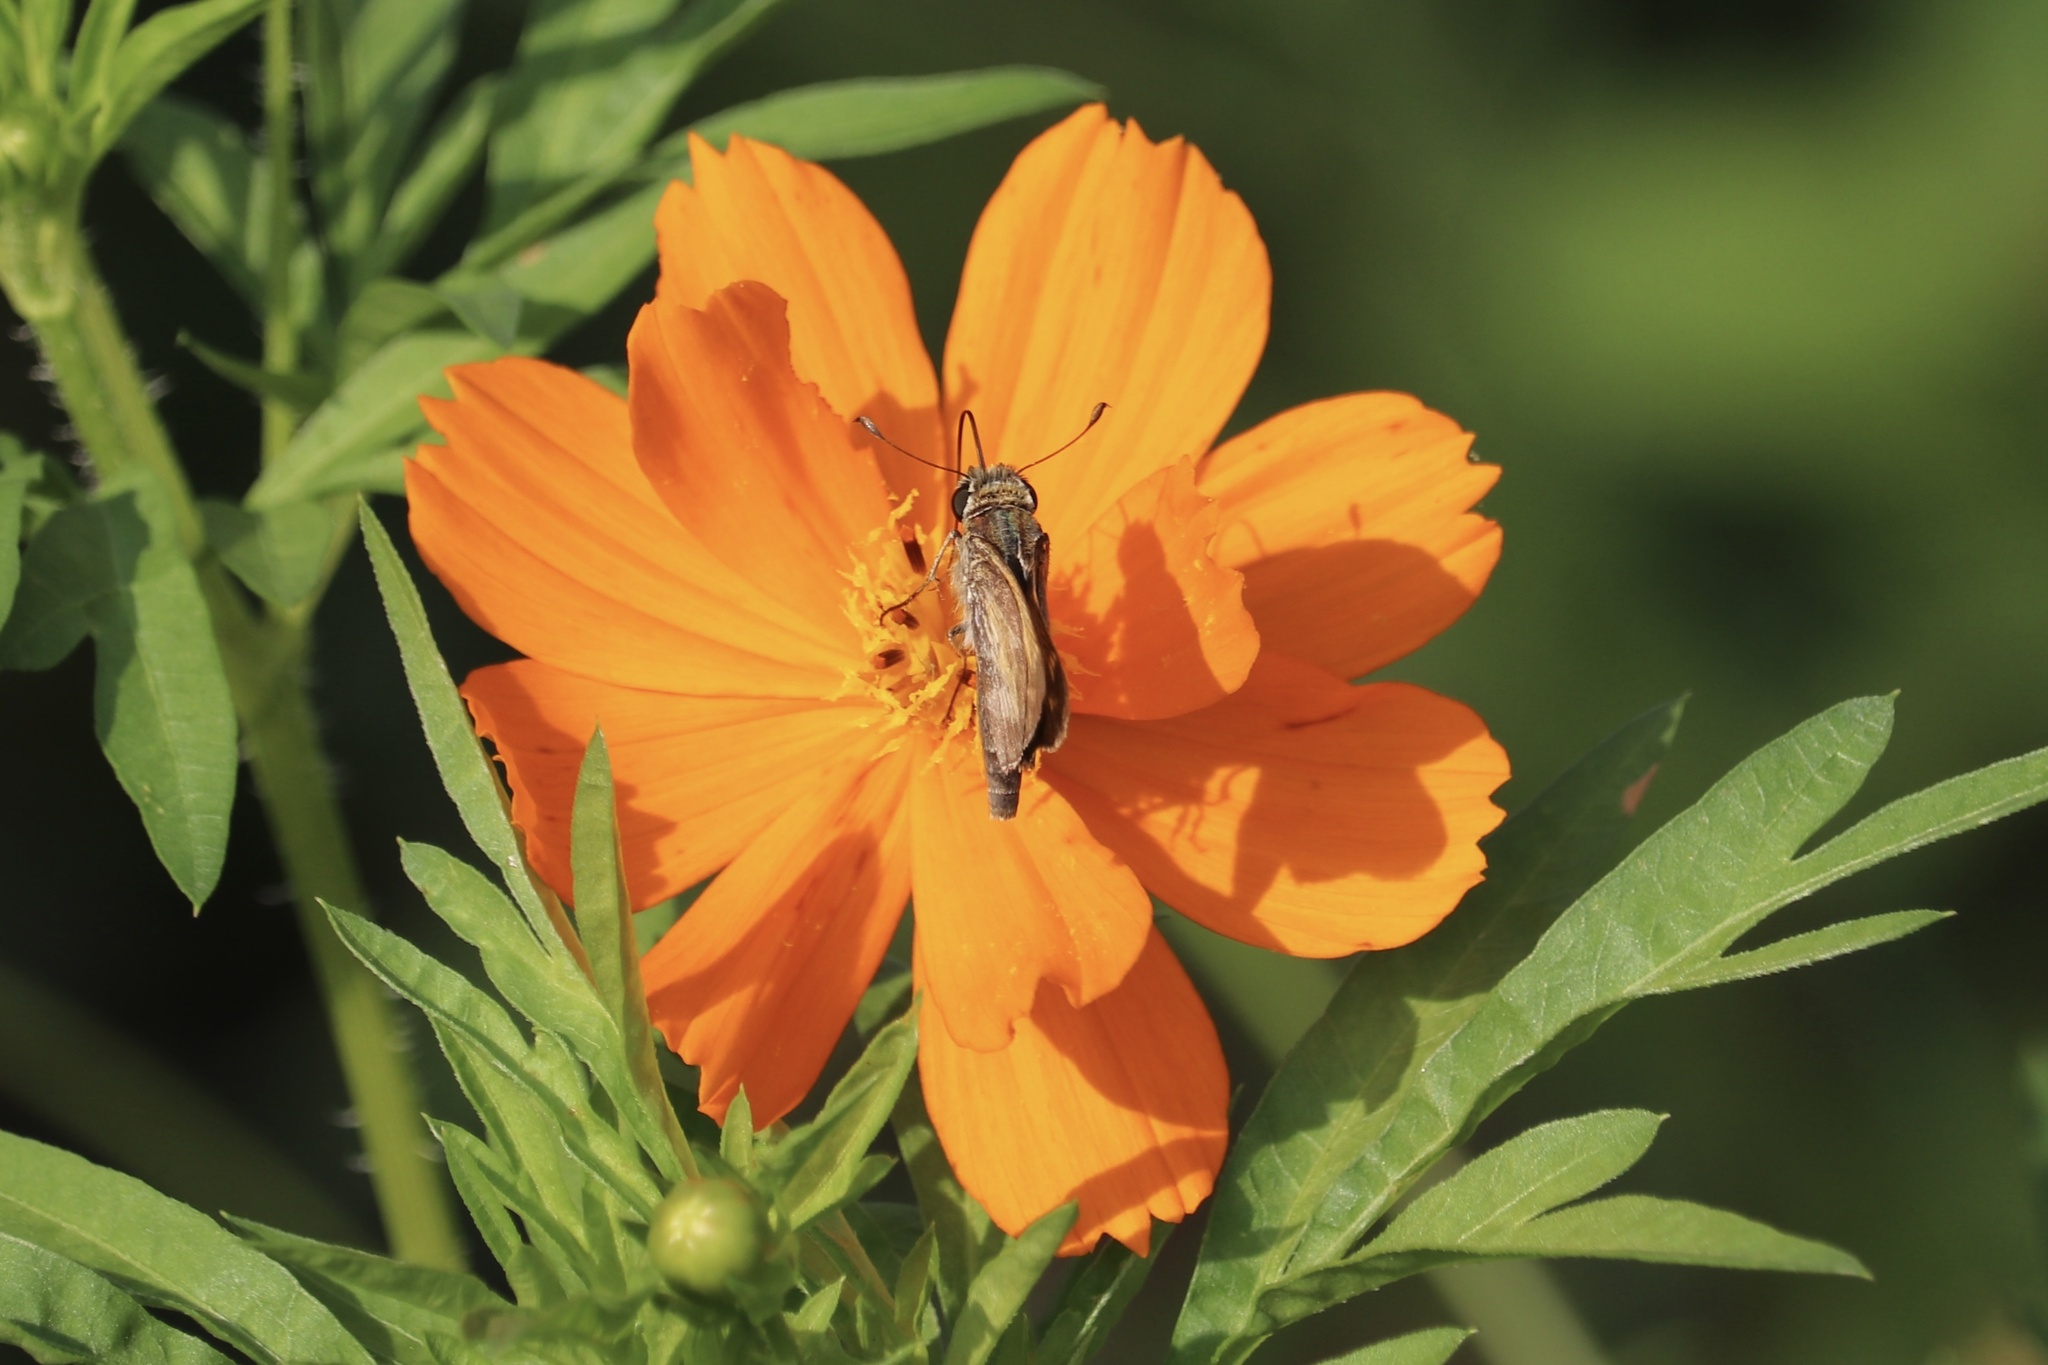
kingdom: Animalia
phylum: Arthropoda
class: Insecta
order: Lepidoptera
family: Hesperiidae
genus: Atalopedes
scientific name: Atalopedes
